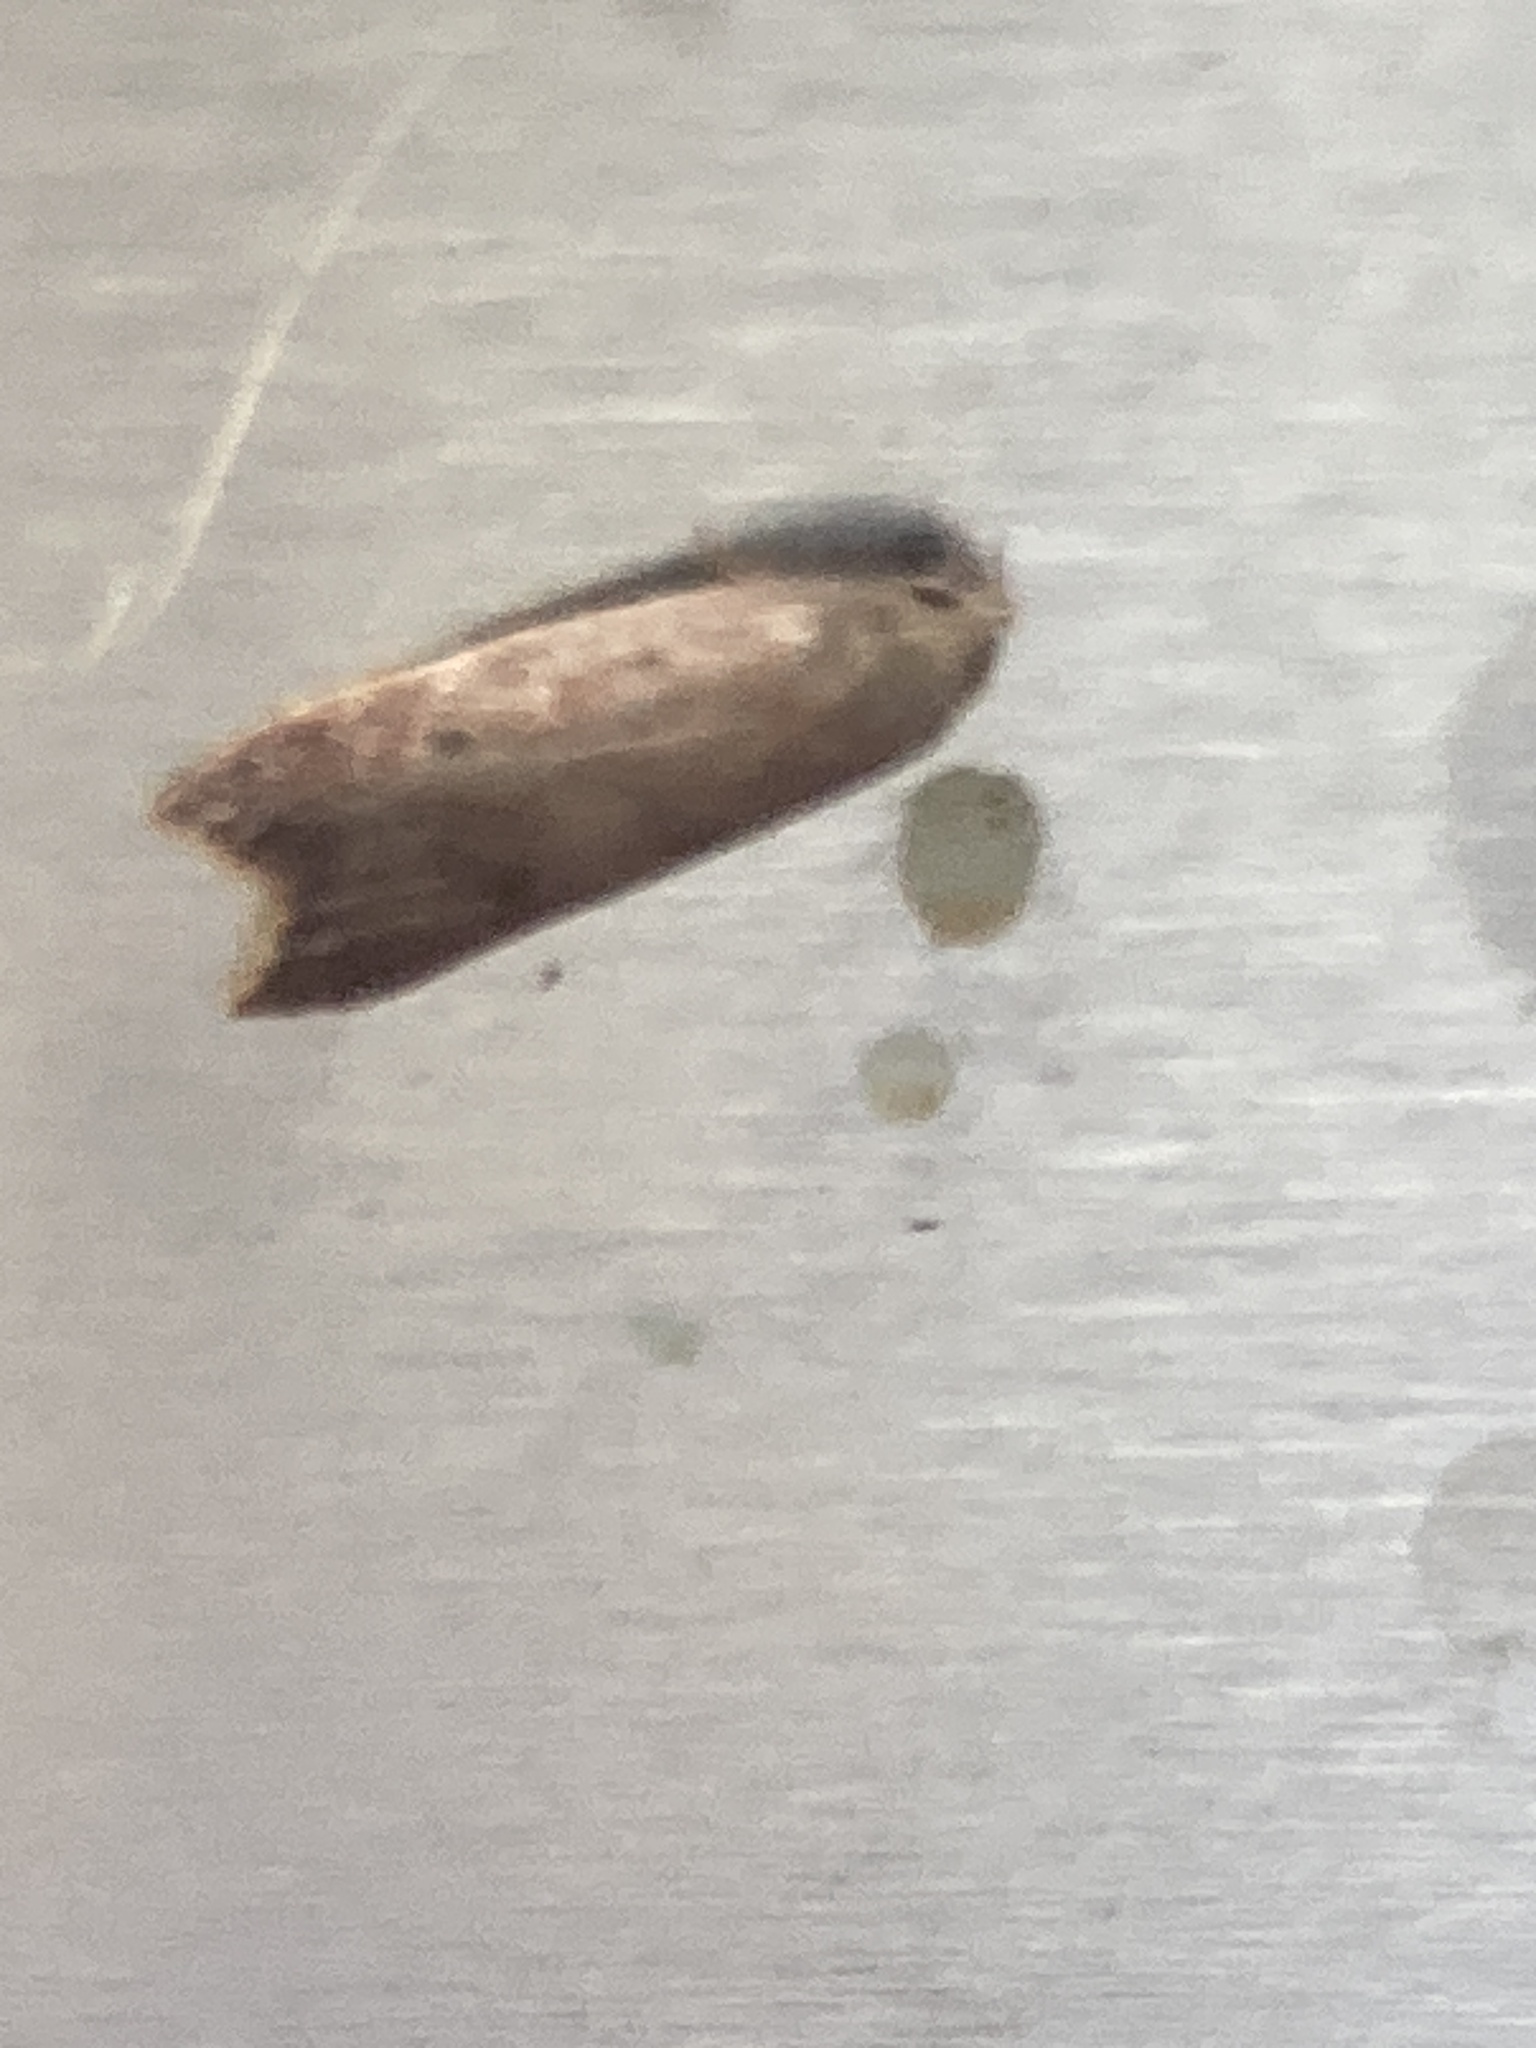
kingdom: Animalia
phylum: Arthropoda
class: Insecta
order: Lepidoptera
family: Oecophoridae
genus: Tachystola
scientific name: Tachystola acroxantha
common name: Ruddy streak
